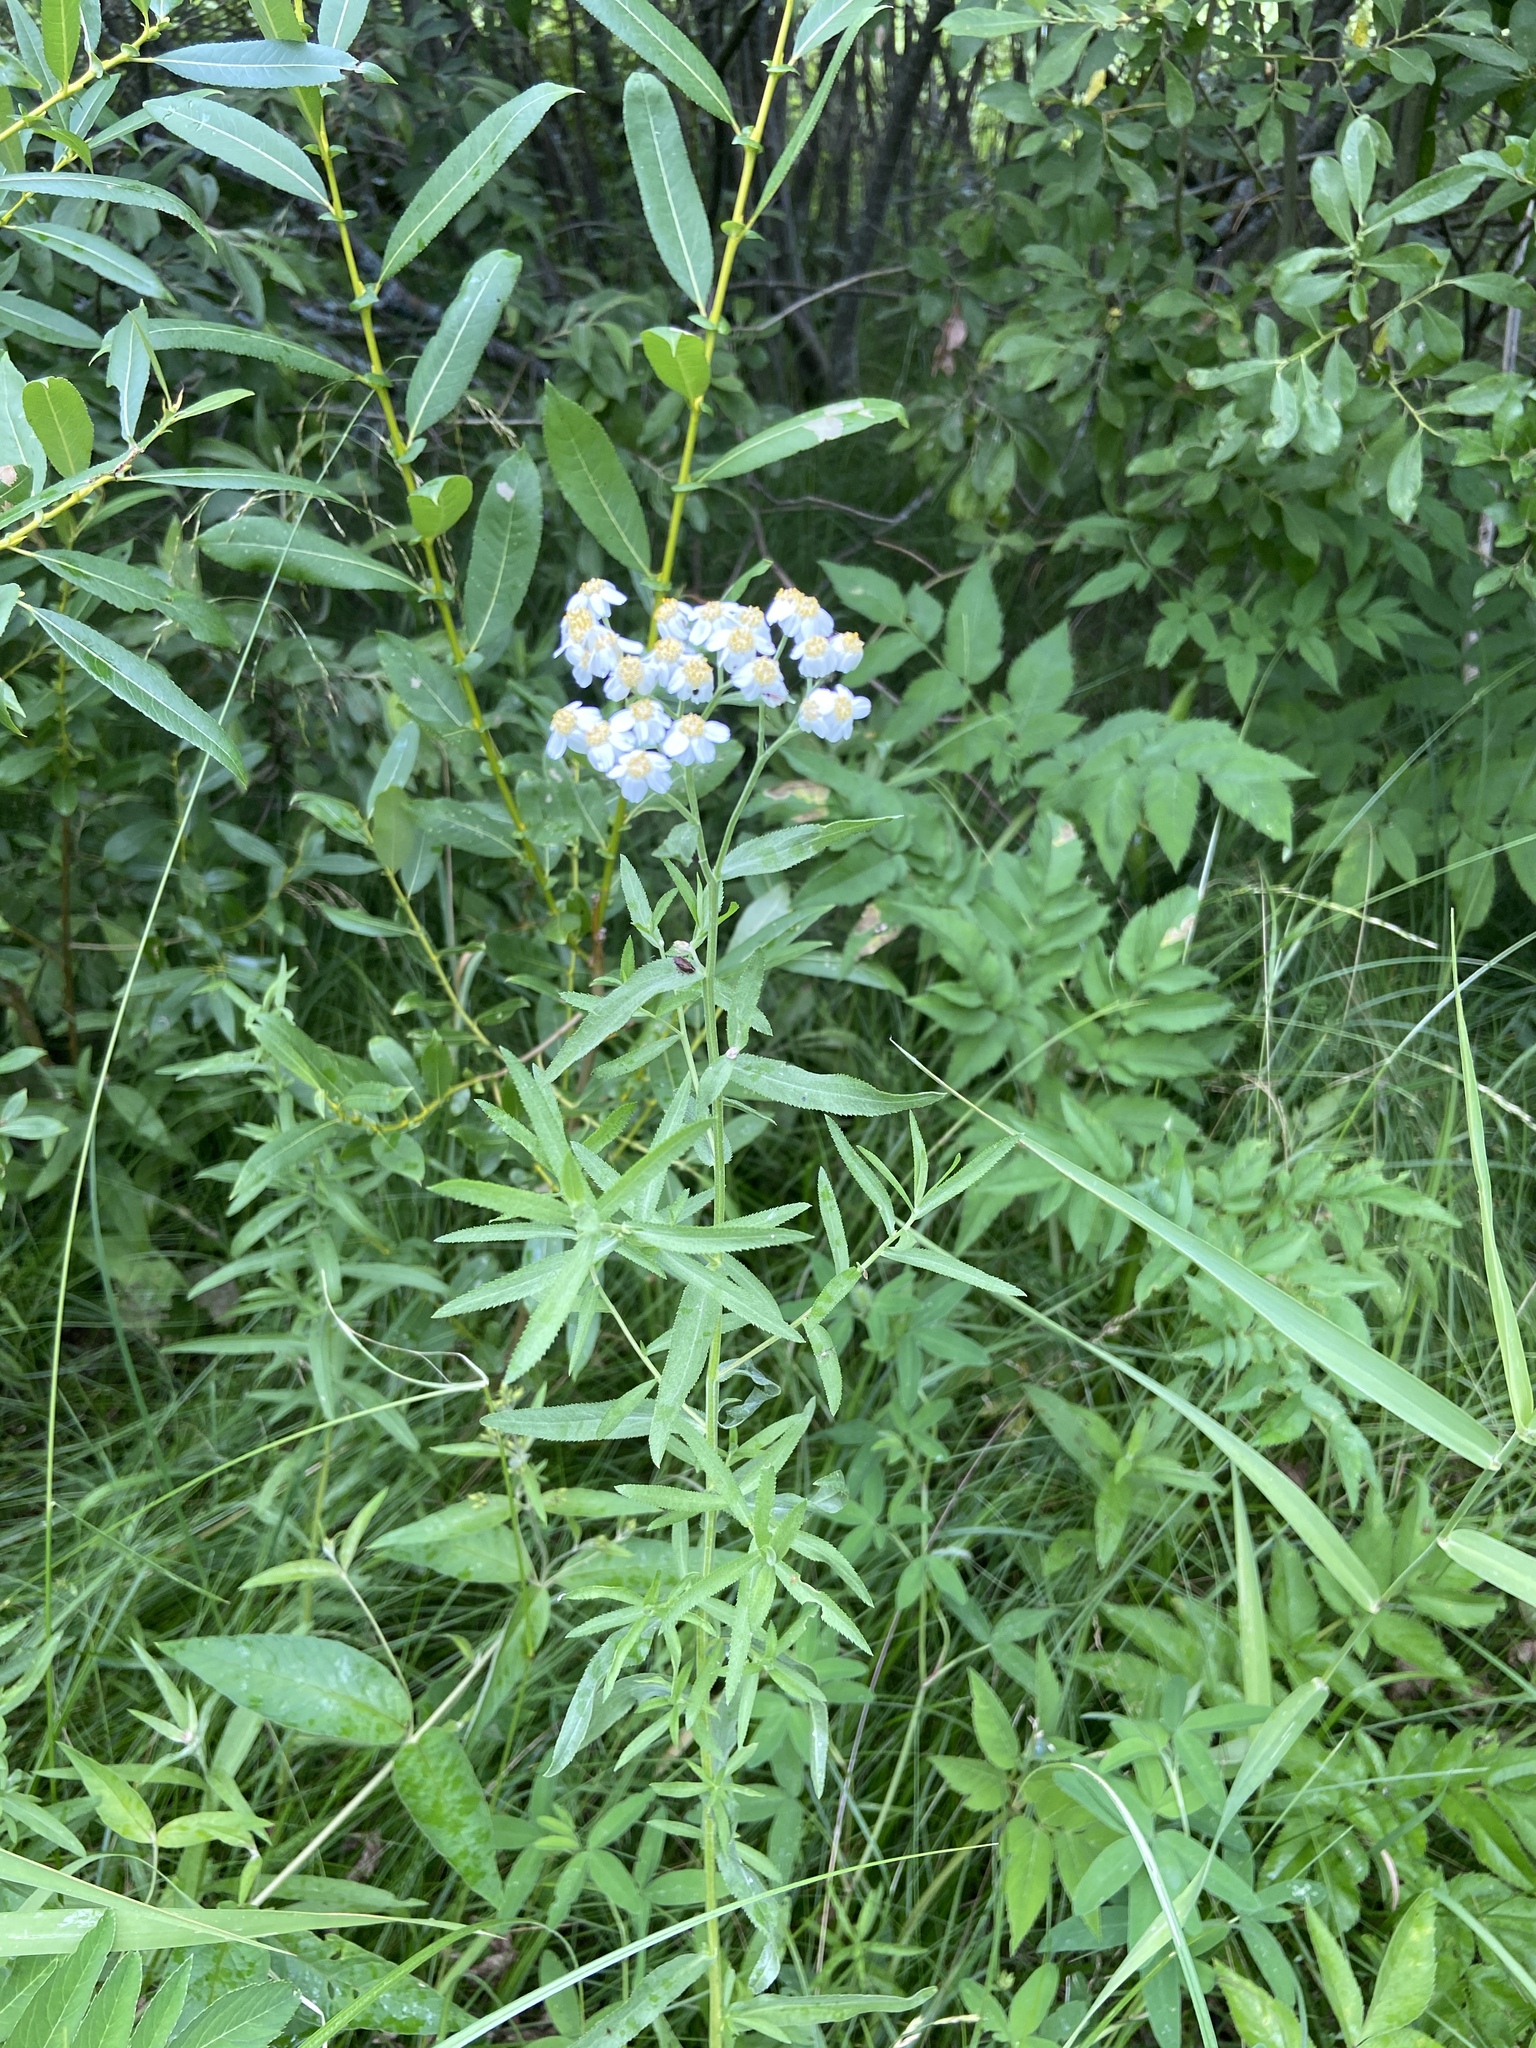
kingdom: Plantae
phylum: Tracheophyta
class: Magnoliopsida
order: Asterales
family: Asteraceae
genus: Achillea
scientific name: Achillea salicifolia
